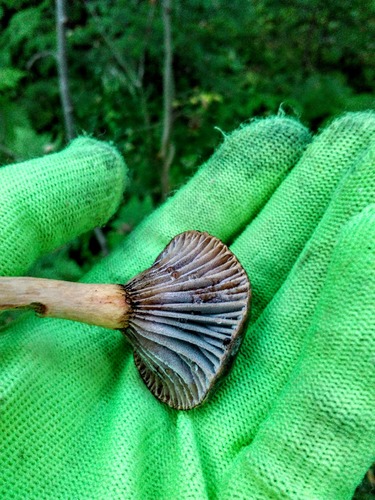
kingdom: Fungi
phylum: Basidiomycota
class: Agaricomycetes
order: Boletales
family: Gomphidiaceae
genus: Chroogomphus
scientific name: Chroogomphus rutilus
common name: Copper spike
